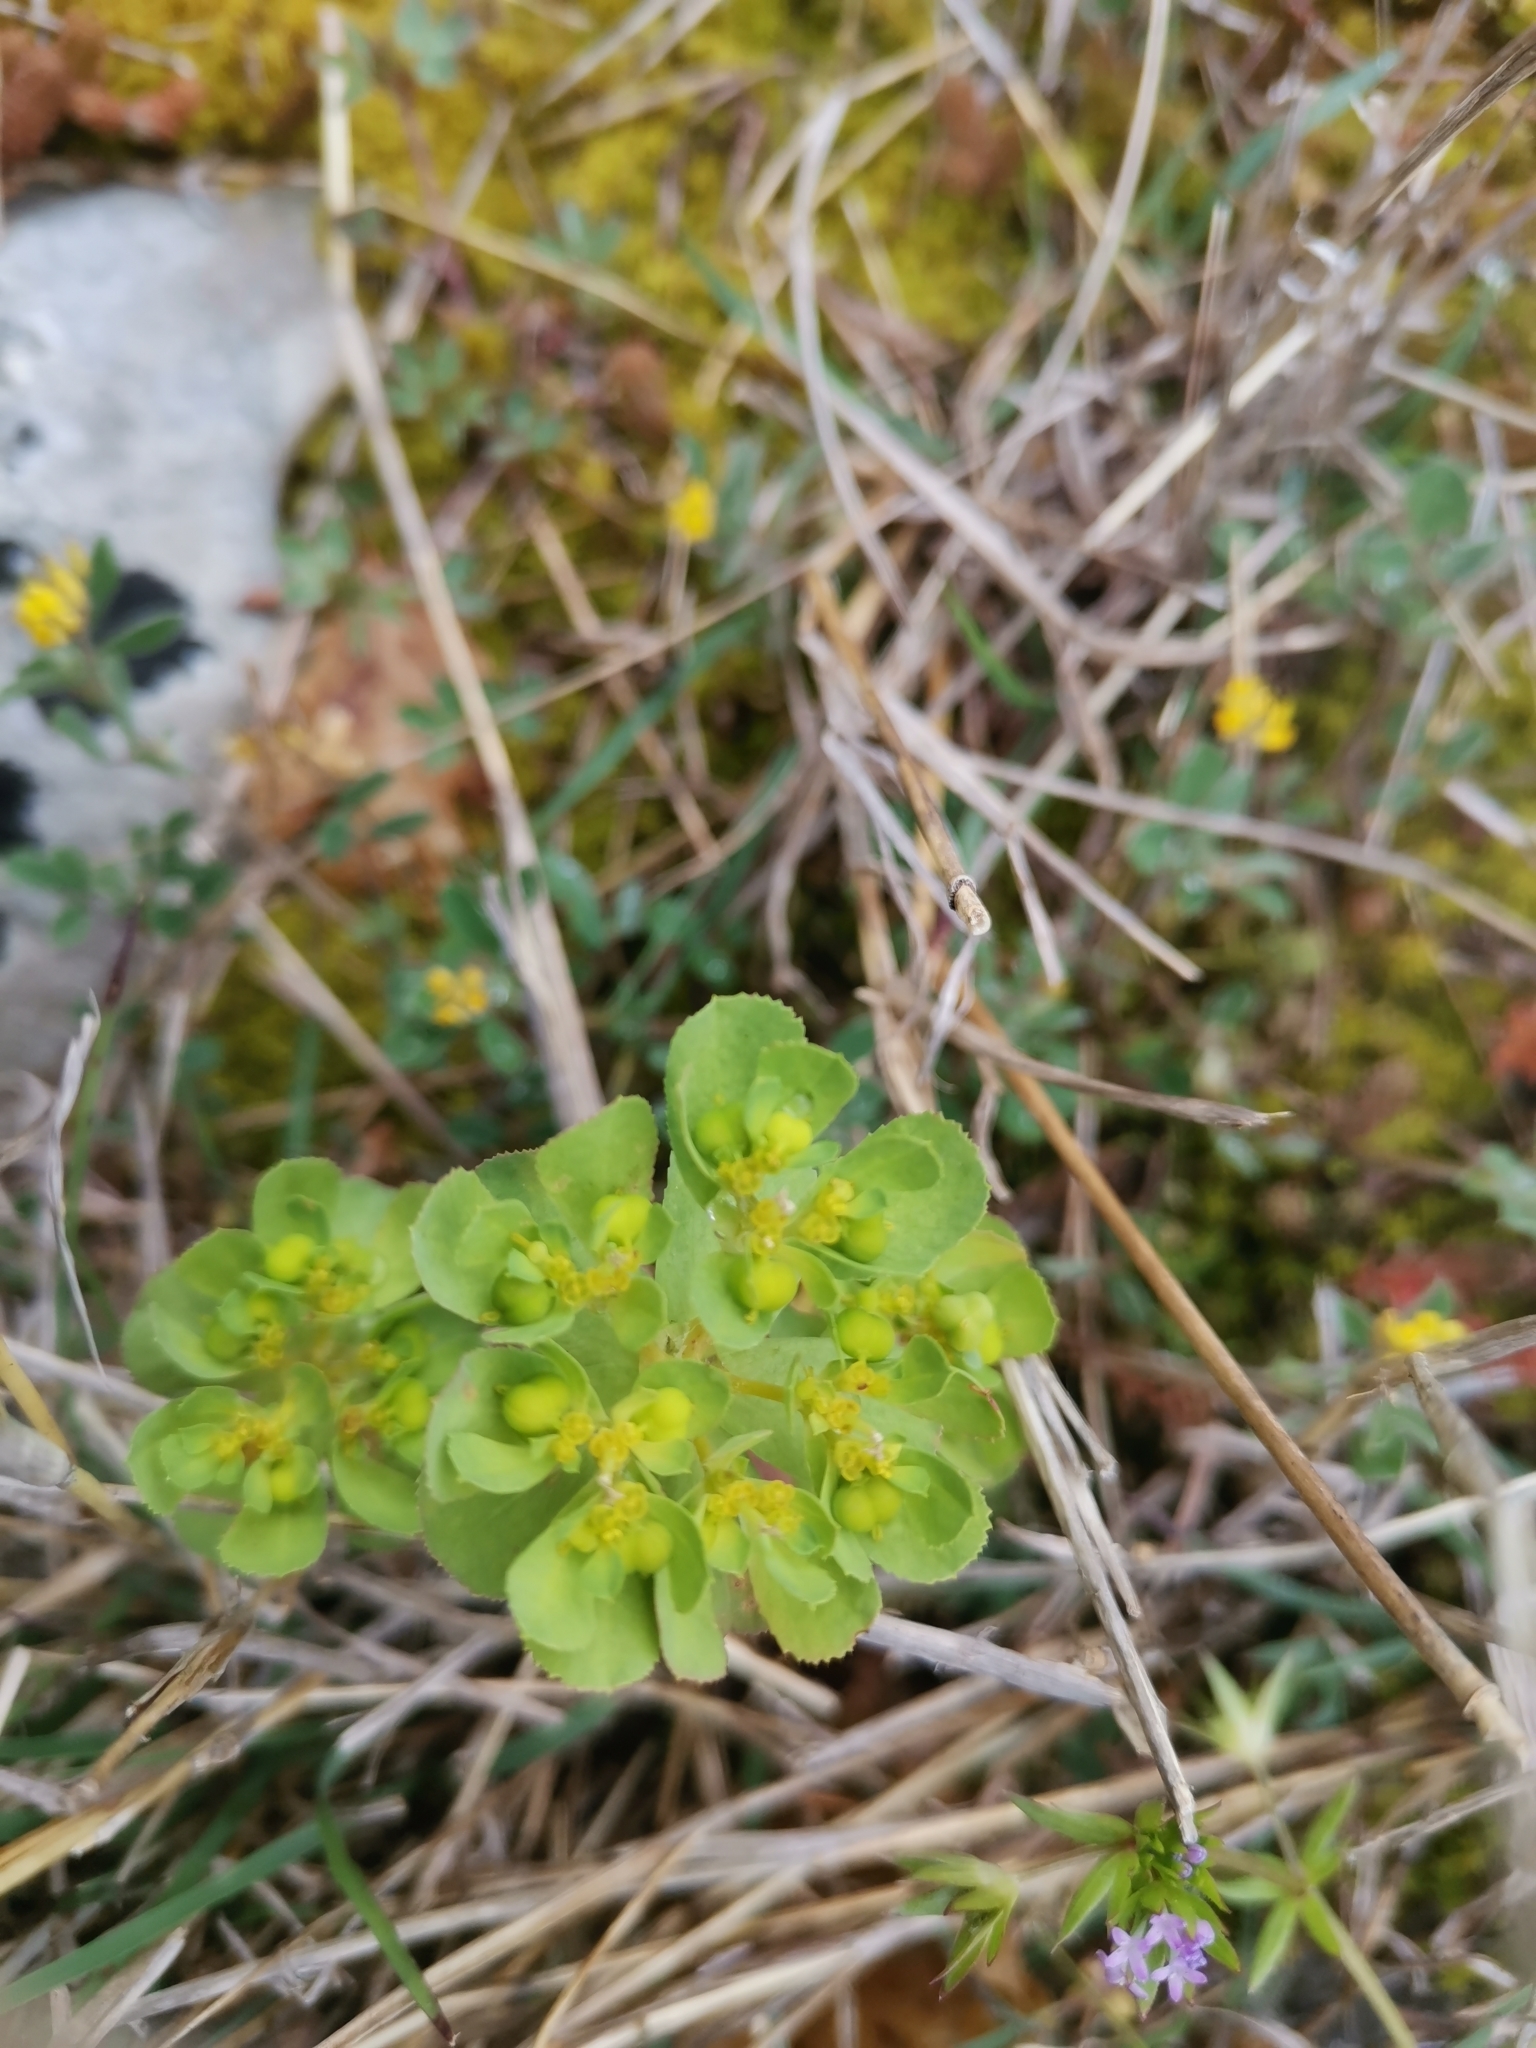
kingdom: Plantae
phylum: Tracheophyta
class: Magnoliopsida
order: Malpighiales
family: Euphorbiaceae
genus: Euphorbia
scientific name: Euphorbia helioscopia
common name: Sun spurge
